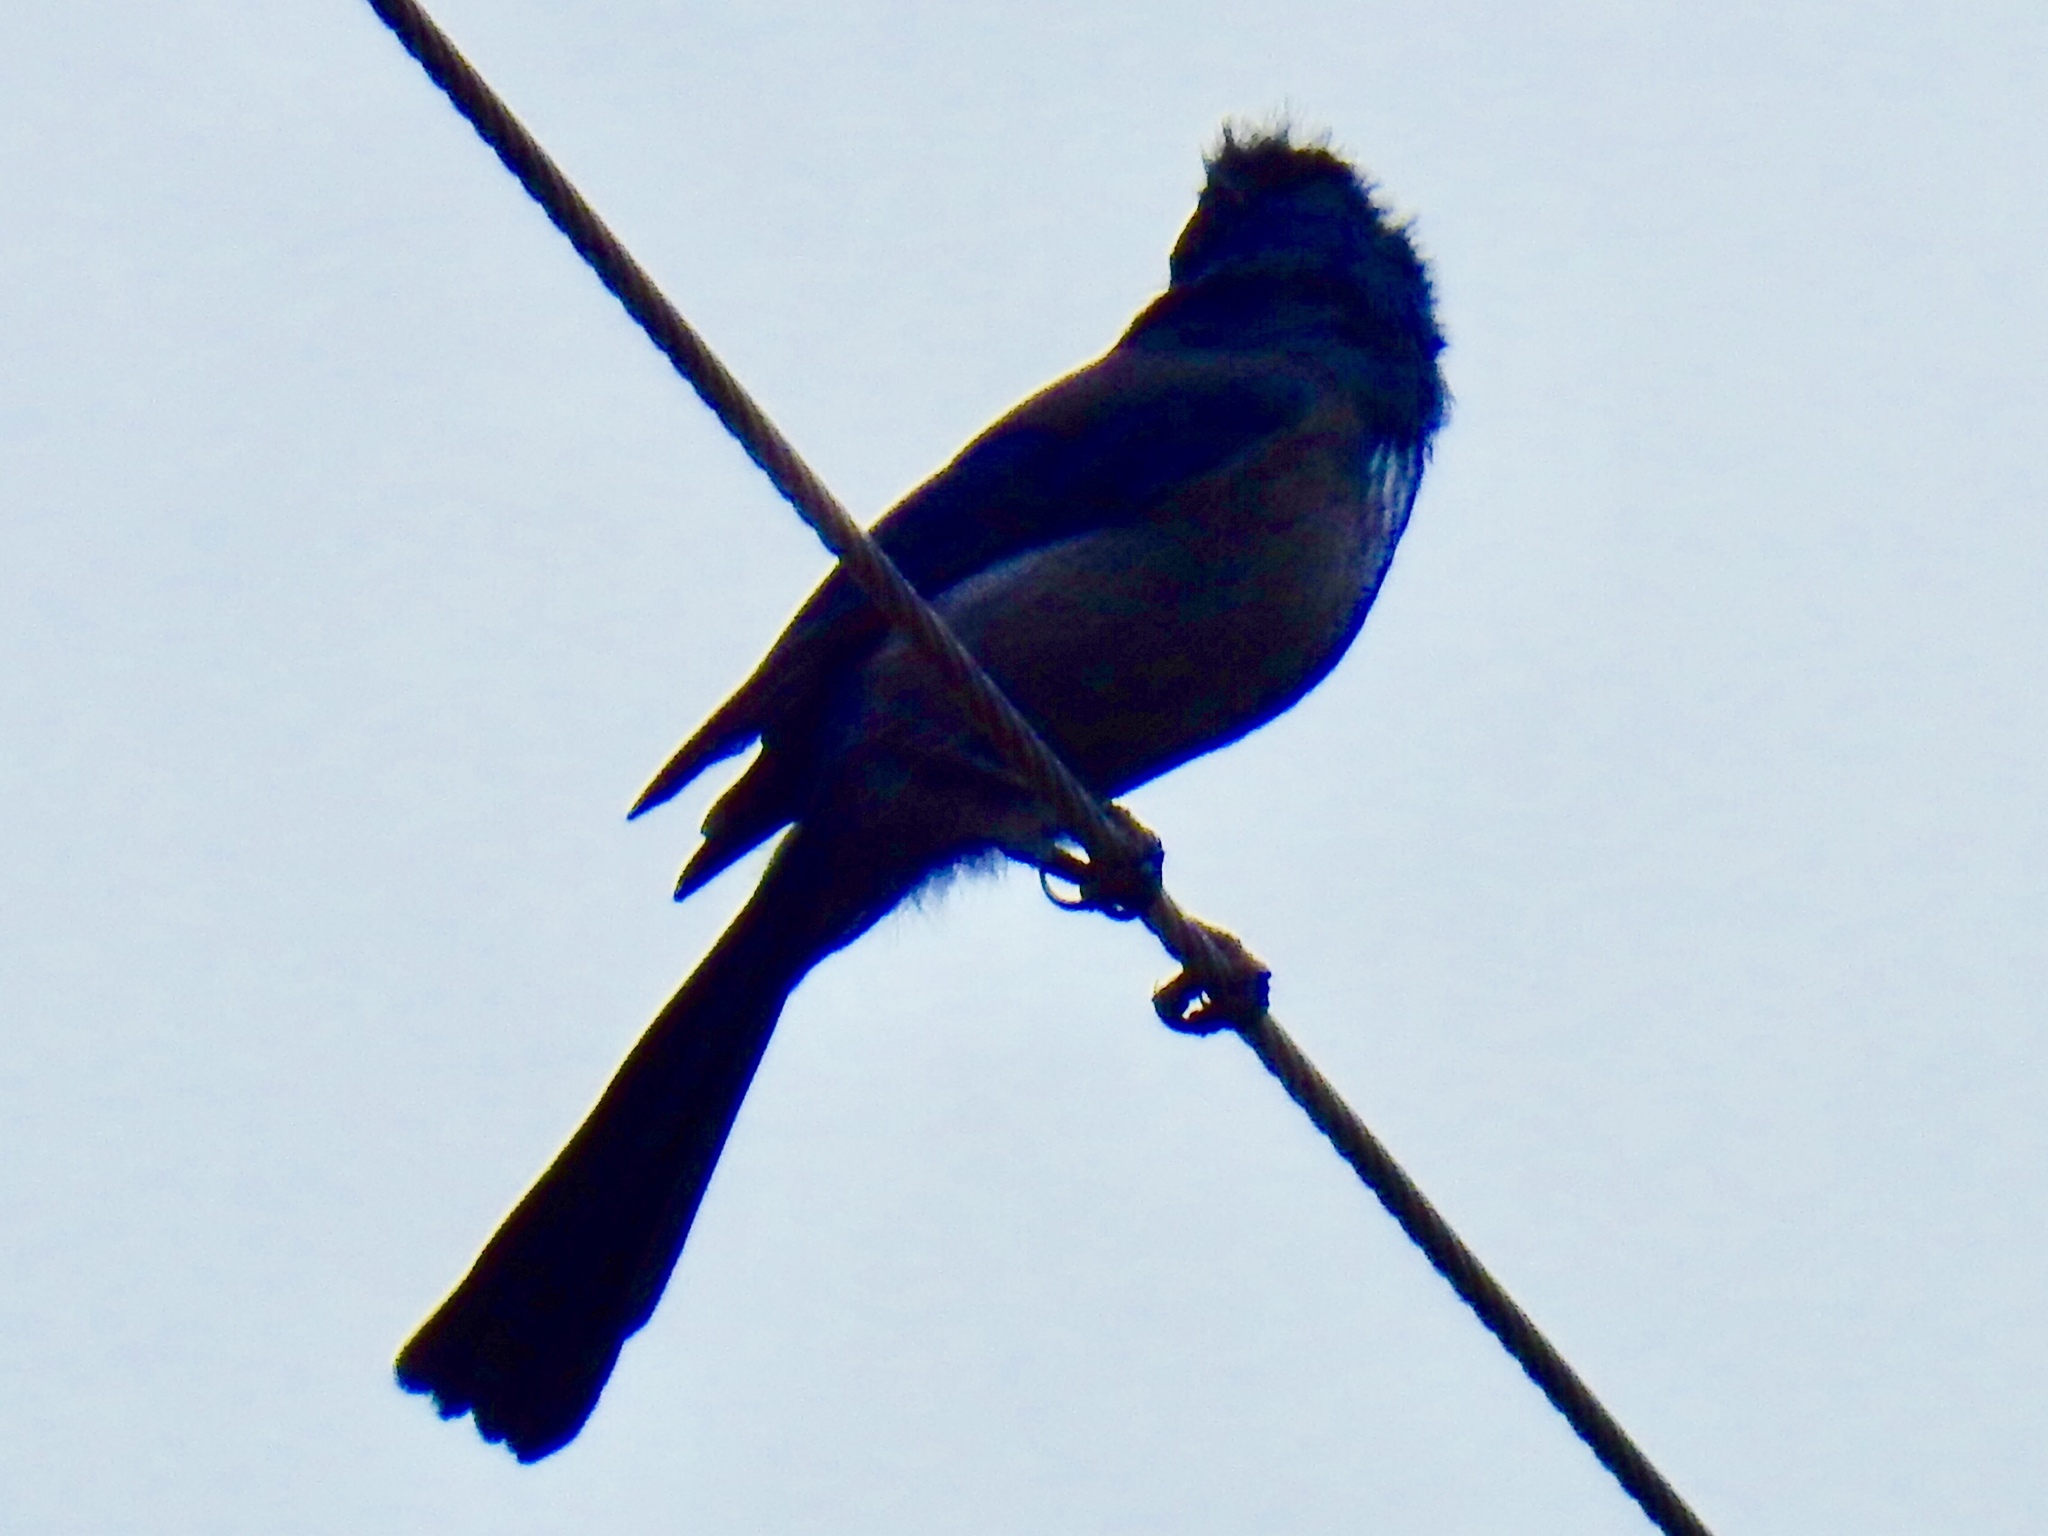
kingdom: Animalia
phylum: Chordata
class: Aves
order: Passeriformes
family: Corvidae
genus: Aphelocoma
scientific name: Aphelocoma woodhouseii
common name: Woodhouse's scrub-jay
